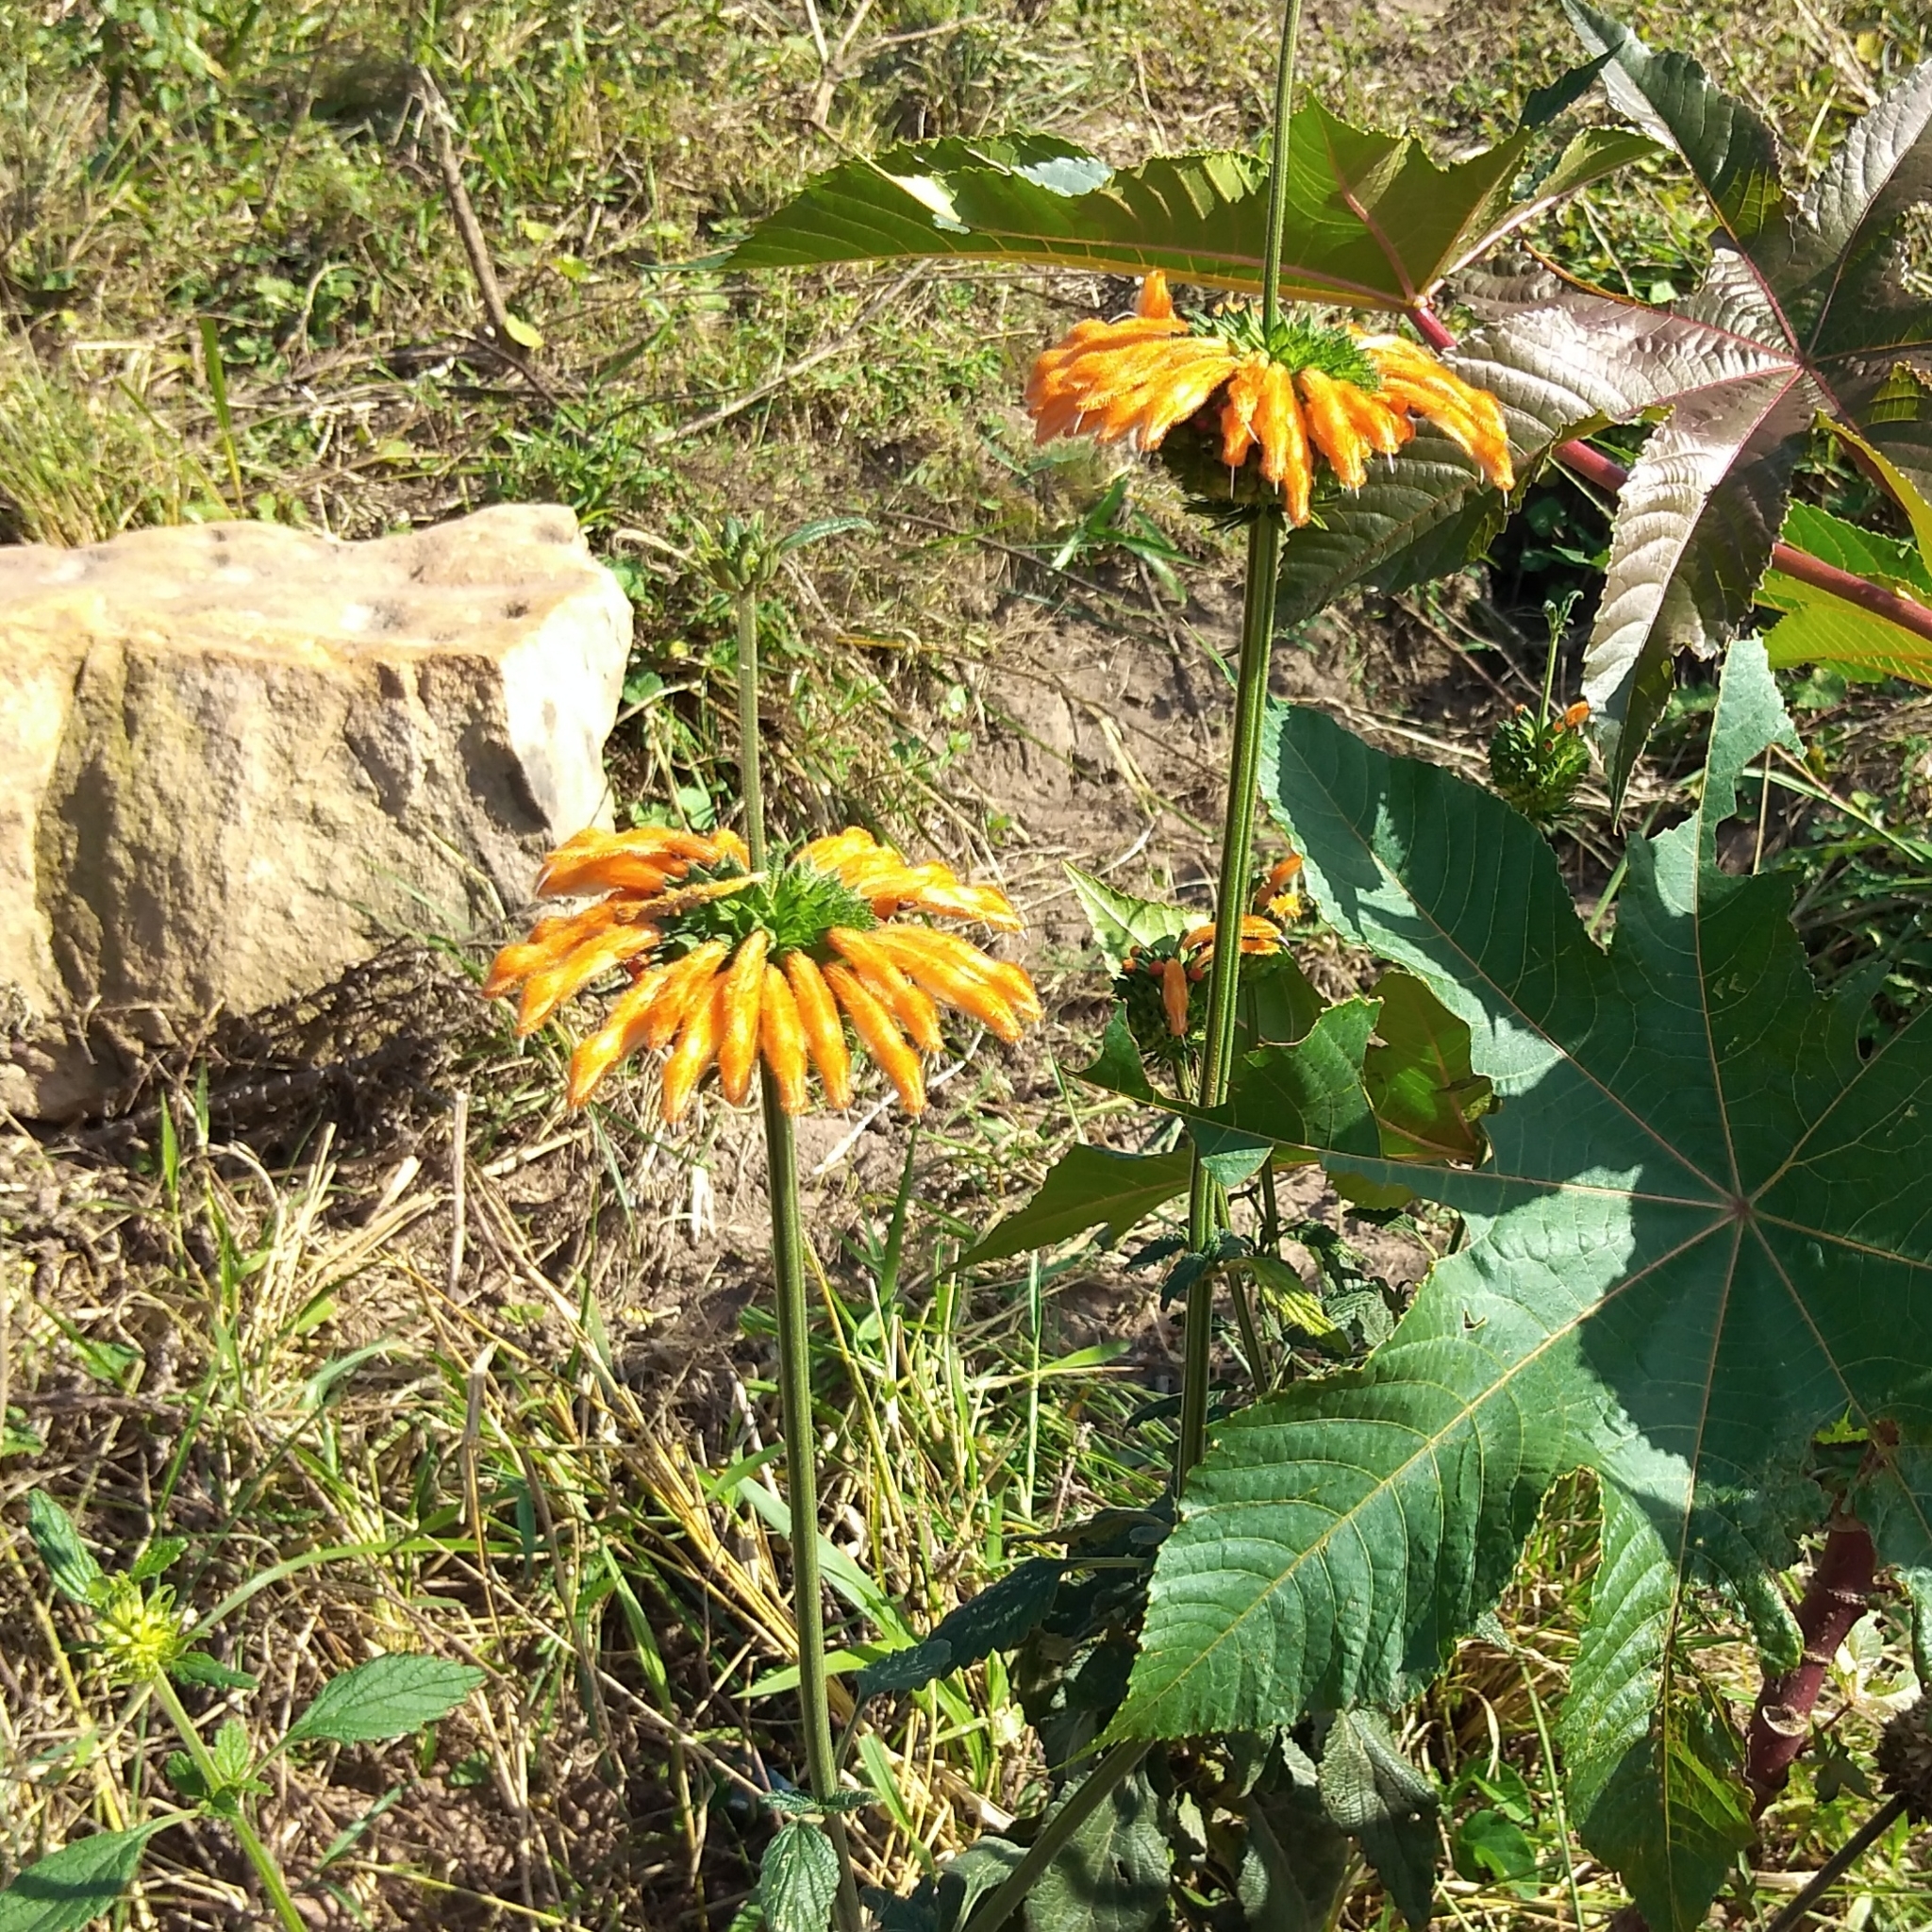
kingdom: Plantae
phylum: Tracheophyta
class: Magnoliopsida
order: Lamiales
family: Lamiaceae
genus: Leonotis
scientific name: Leonotis ocymifolia
